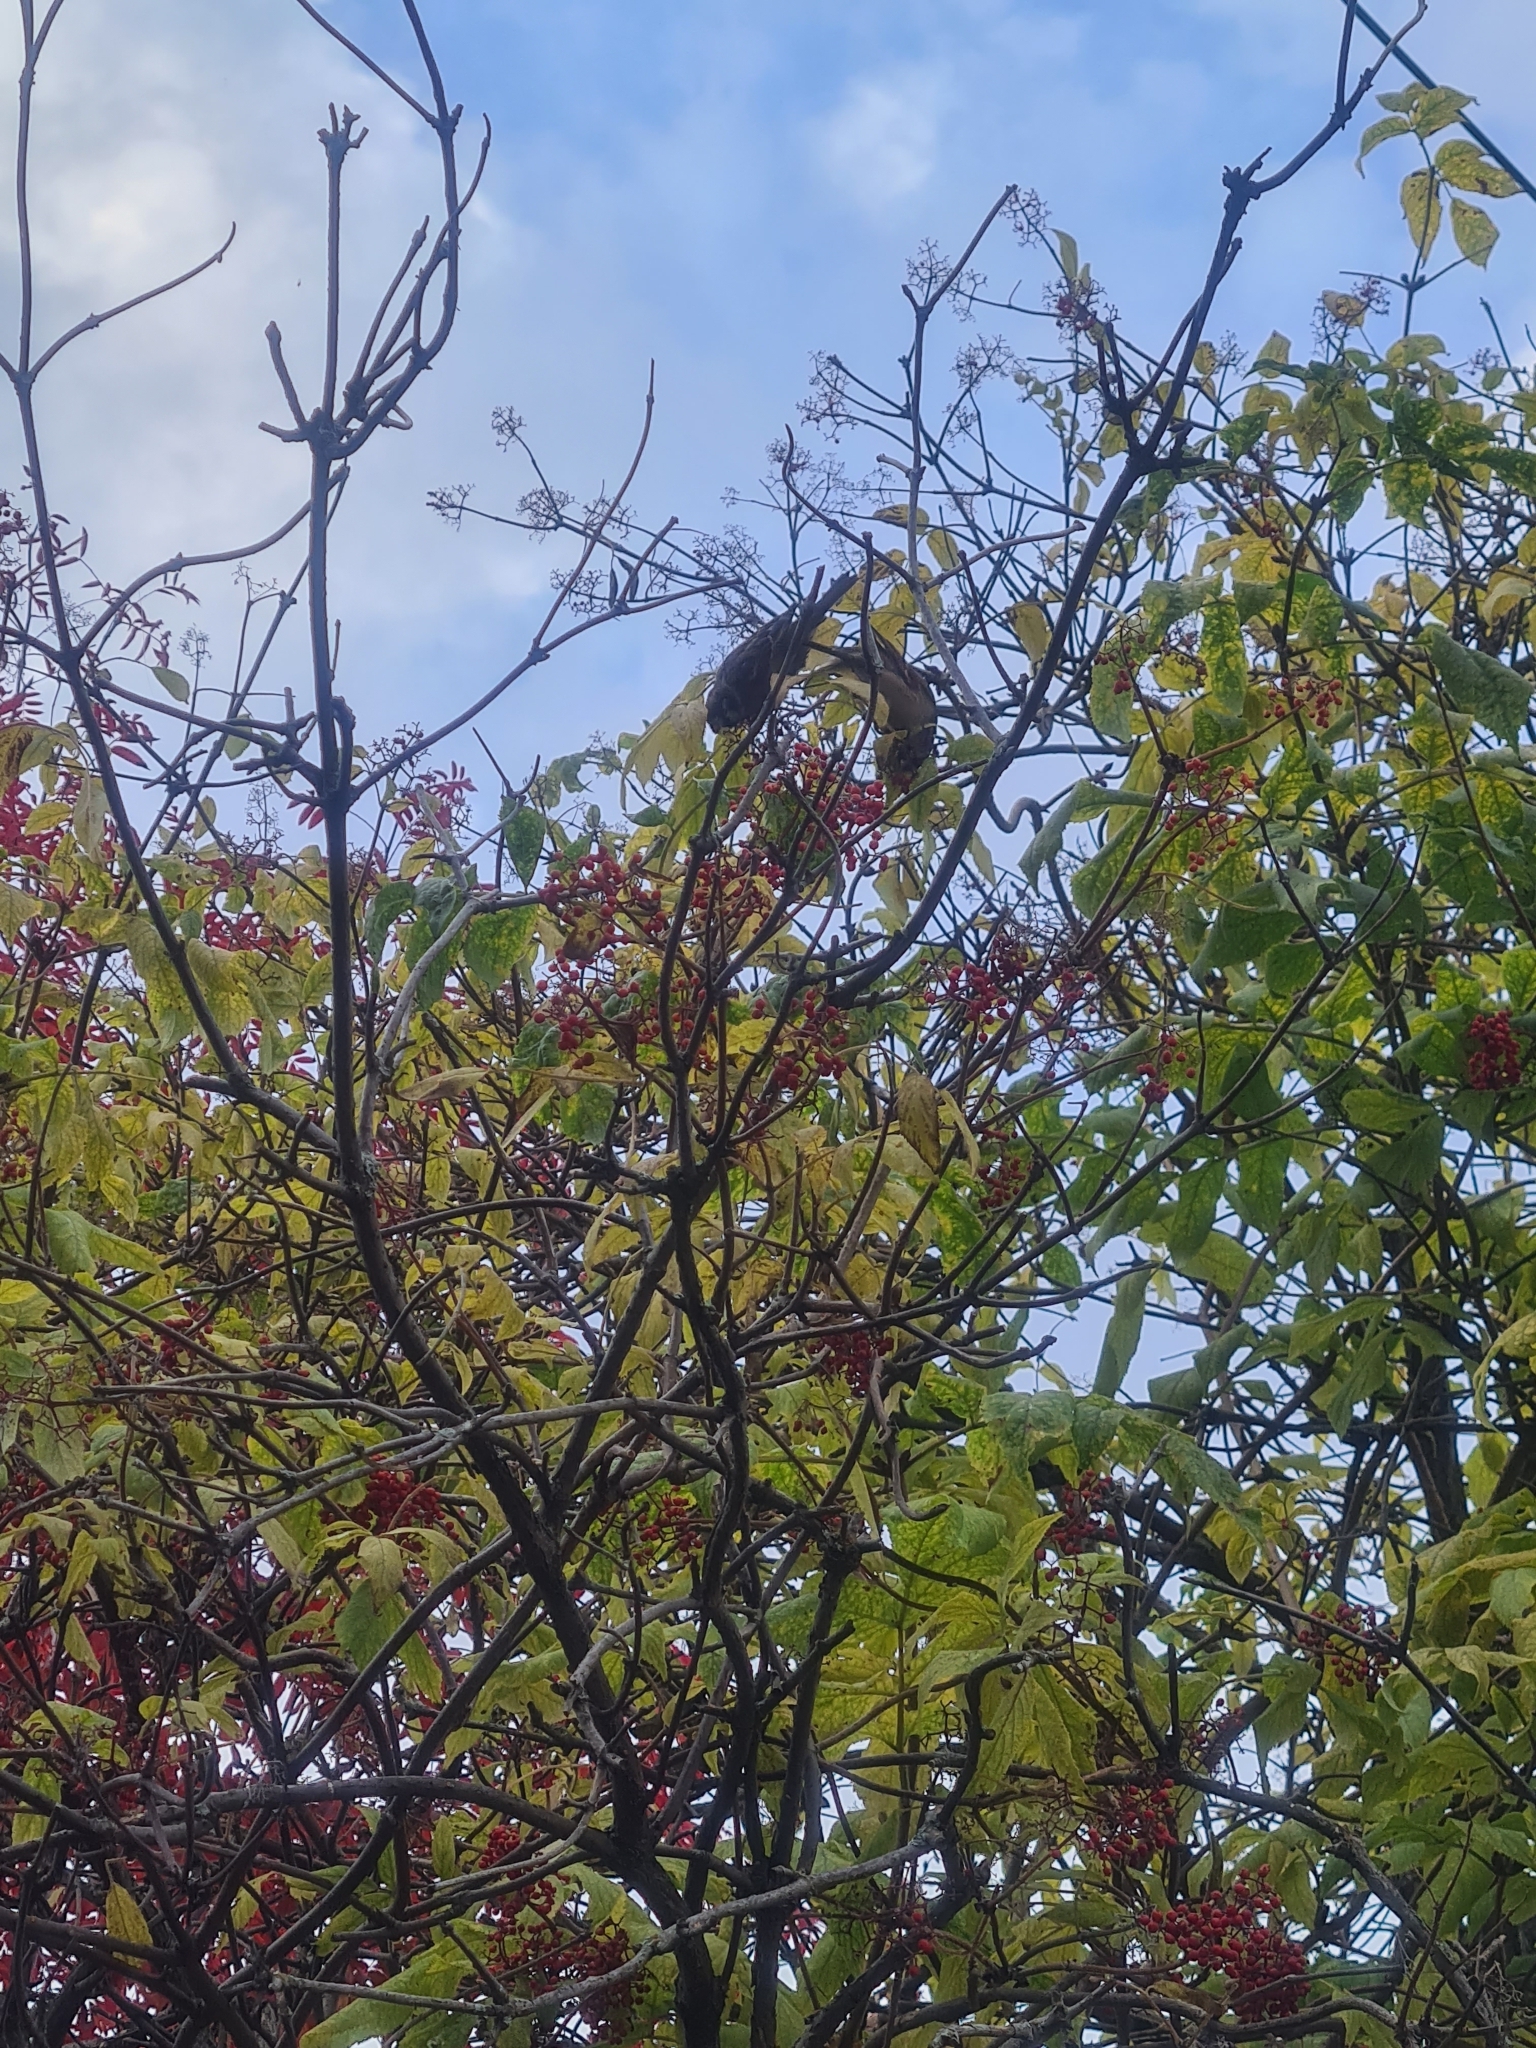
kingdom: Animalia
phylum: Chordata
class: Aves
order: Passeriformes
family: Passeridae
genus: Passer
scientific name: Passer montanus
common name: Eurasian tree sparrow
